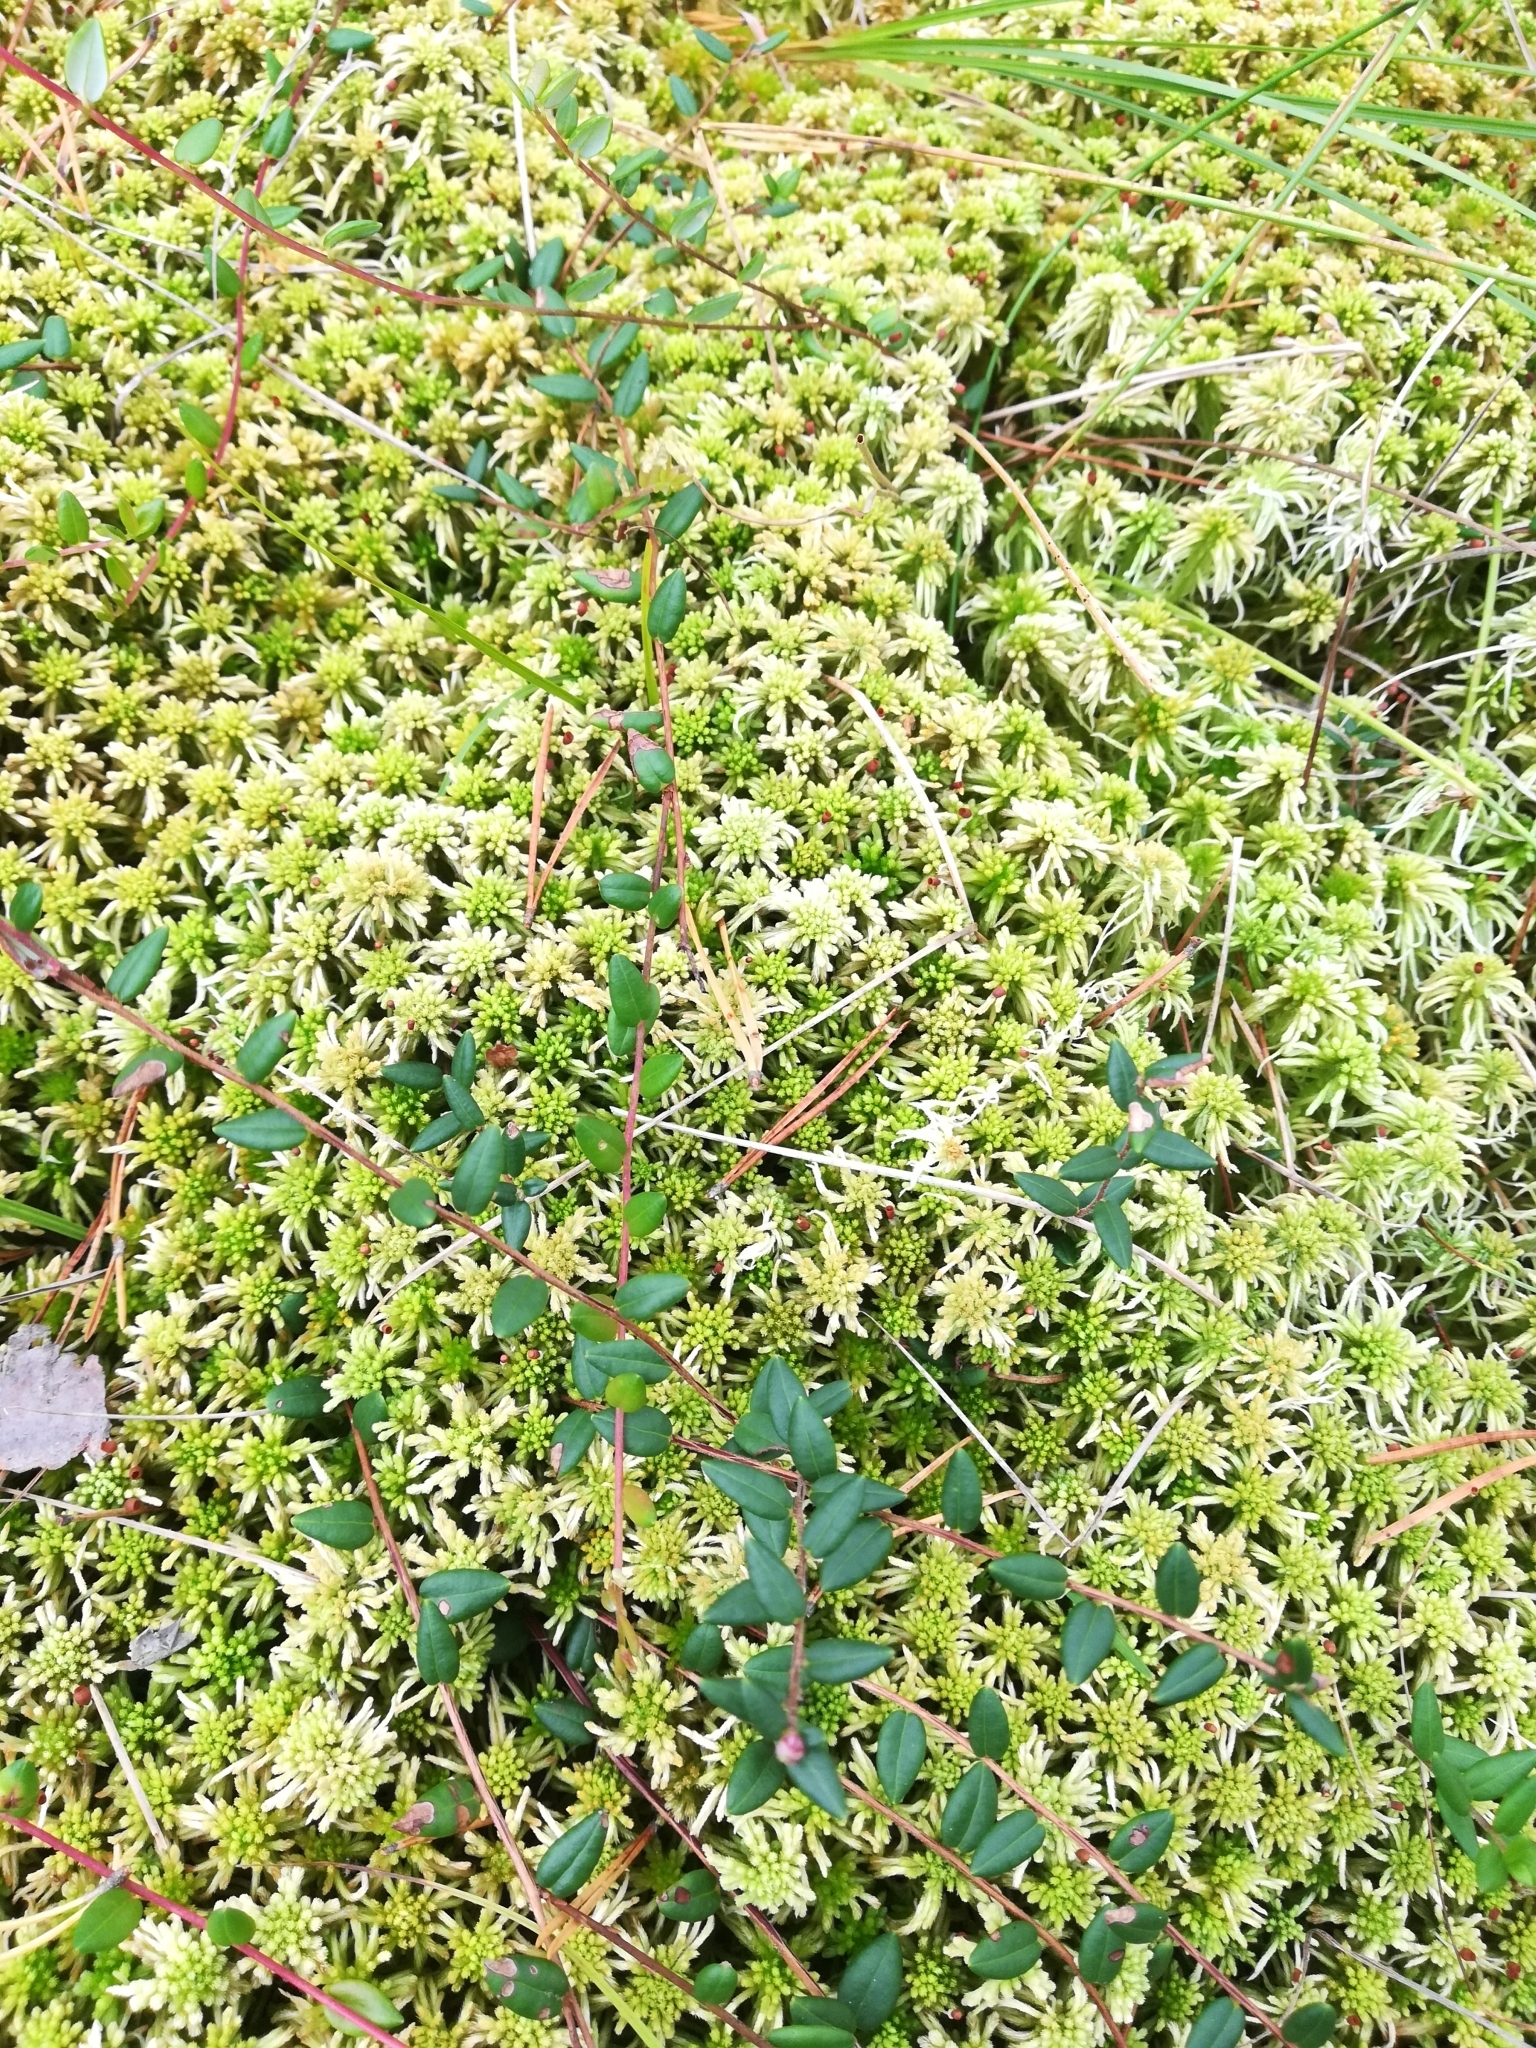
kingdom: Plantae
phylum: Tracheophyta
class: Magnoliopsida
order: Ericales
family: Ericaceae
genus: Vaccinium
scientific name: Vaccinium oxycoccos
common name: Cranberry
